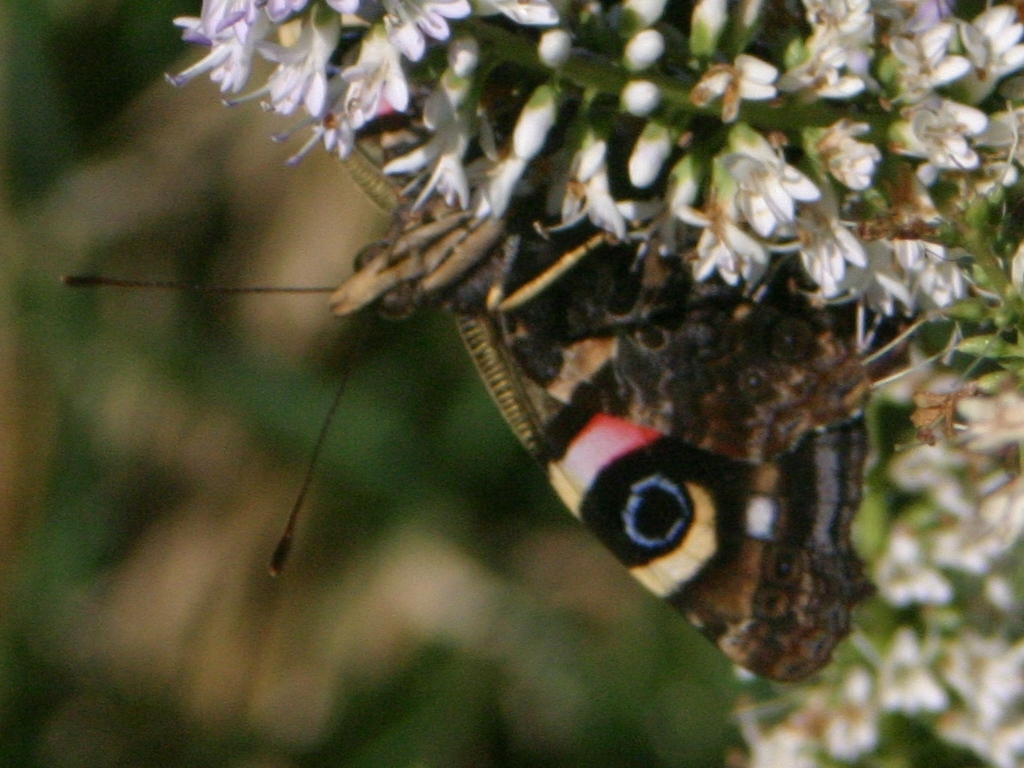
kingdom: Animalia
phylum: Arthropoda
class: Insecta
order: Lepidoptera
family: Nymphalidae
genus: Vanessa
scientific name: Vanessa gonerilla
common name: New zealand red admiral
